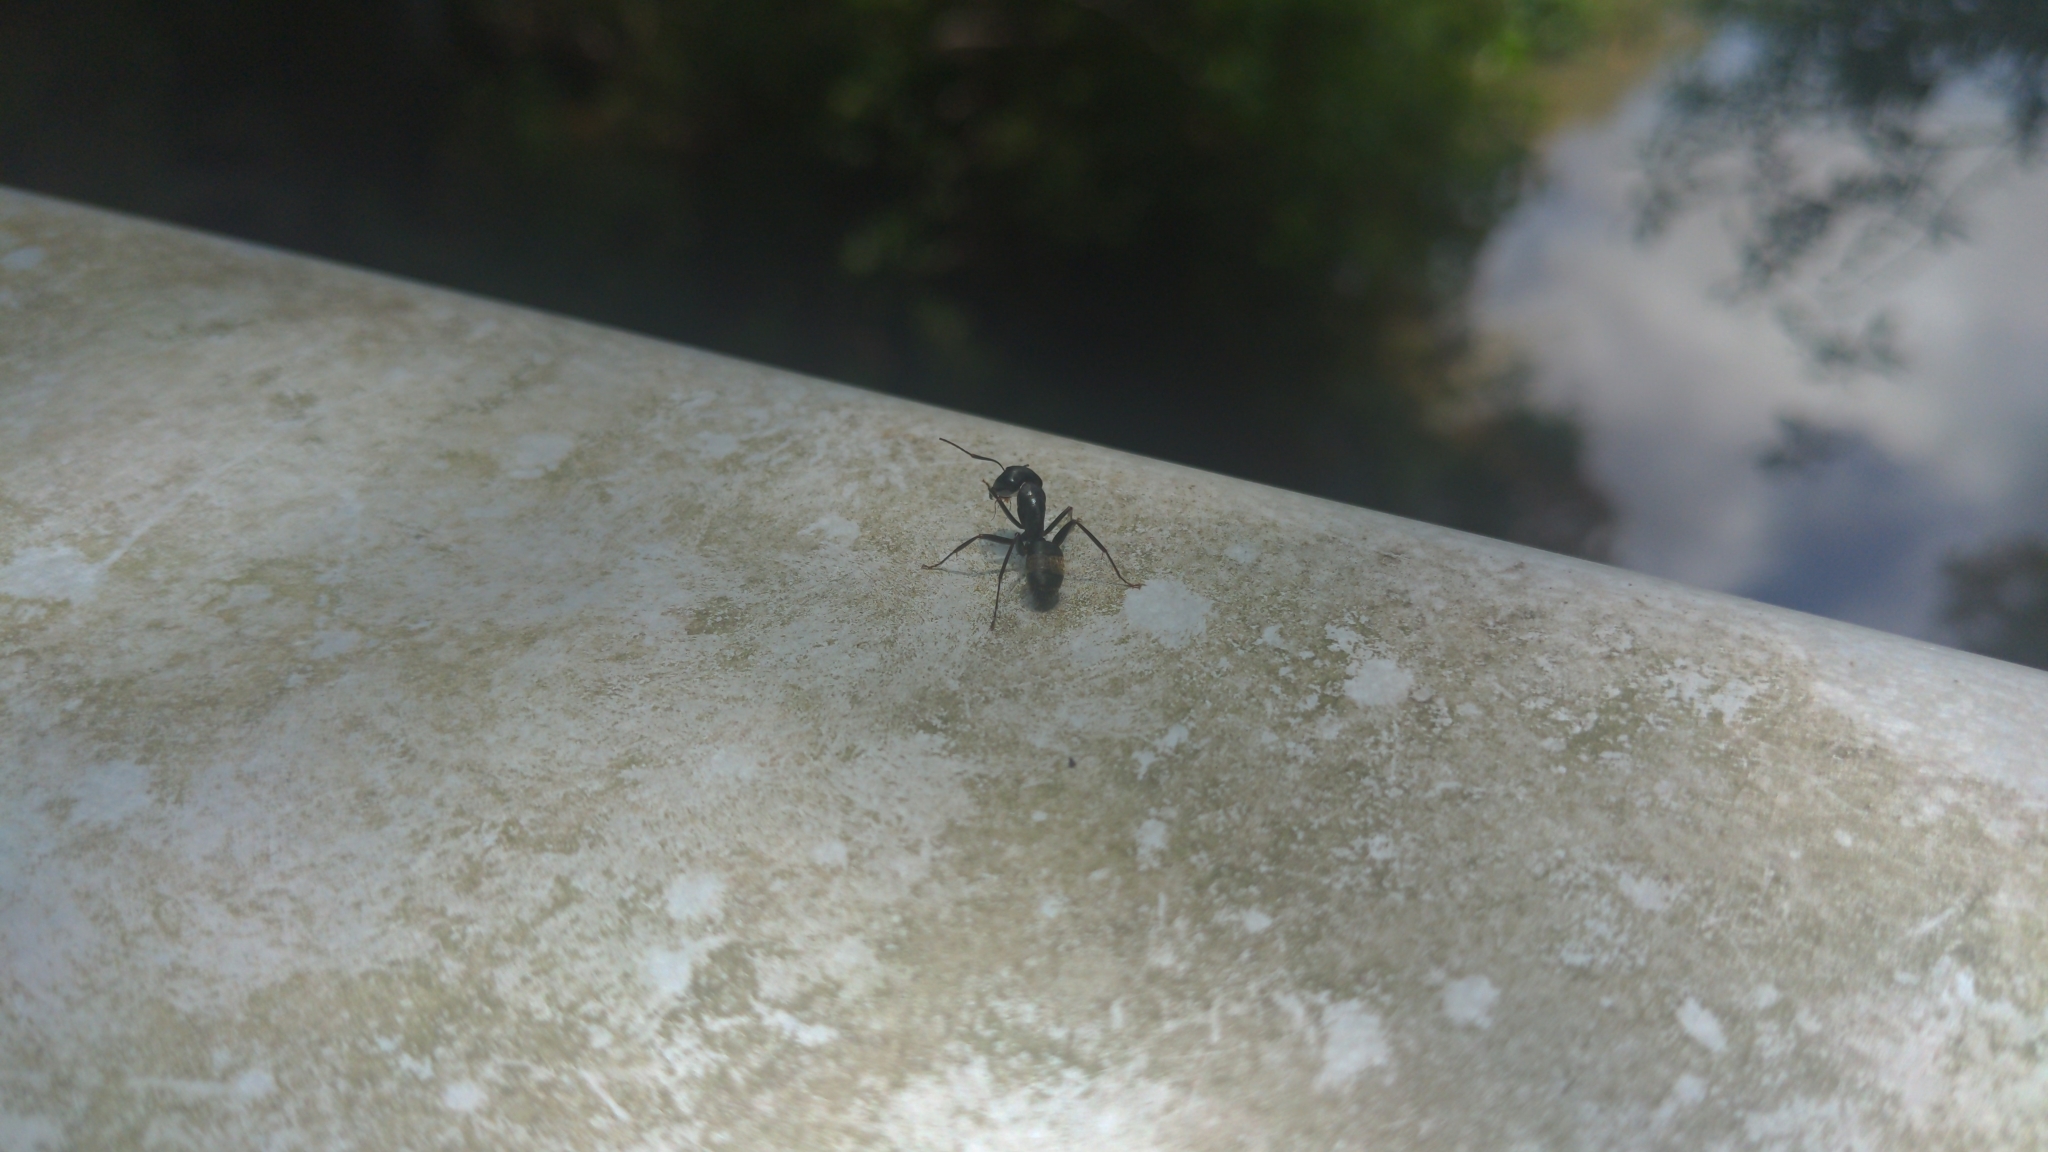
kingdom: Animalia
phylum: Arthropoda
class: Insecta
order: Hymenoptera
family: Formicidae
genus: Camponotus
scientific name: Camponotus pennsylvanicus
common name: Black carpenter ant
